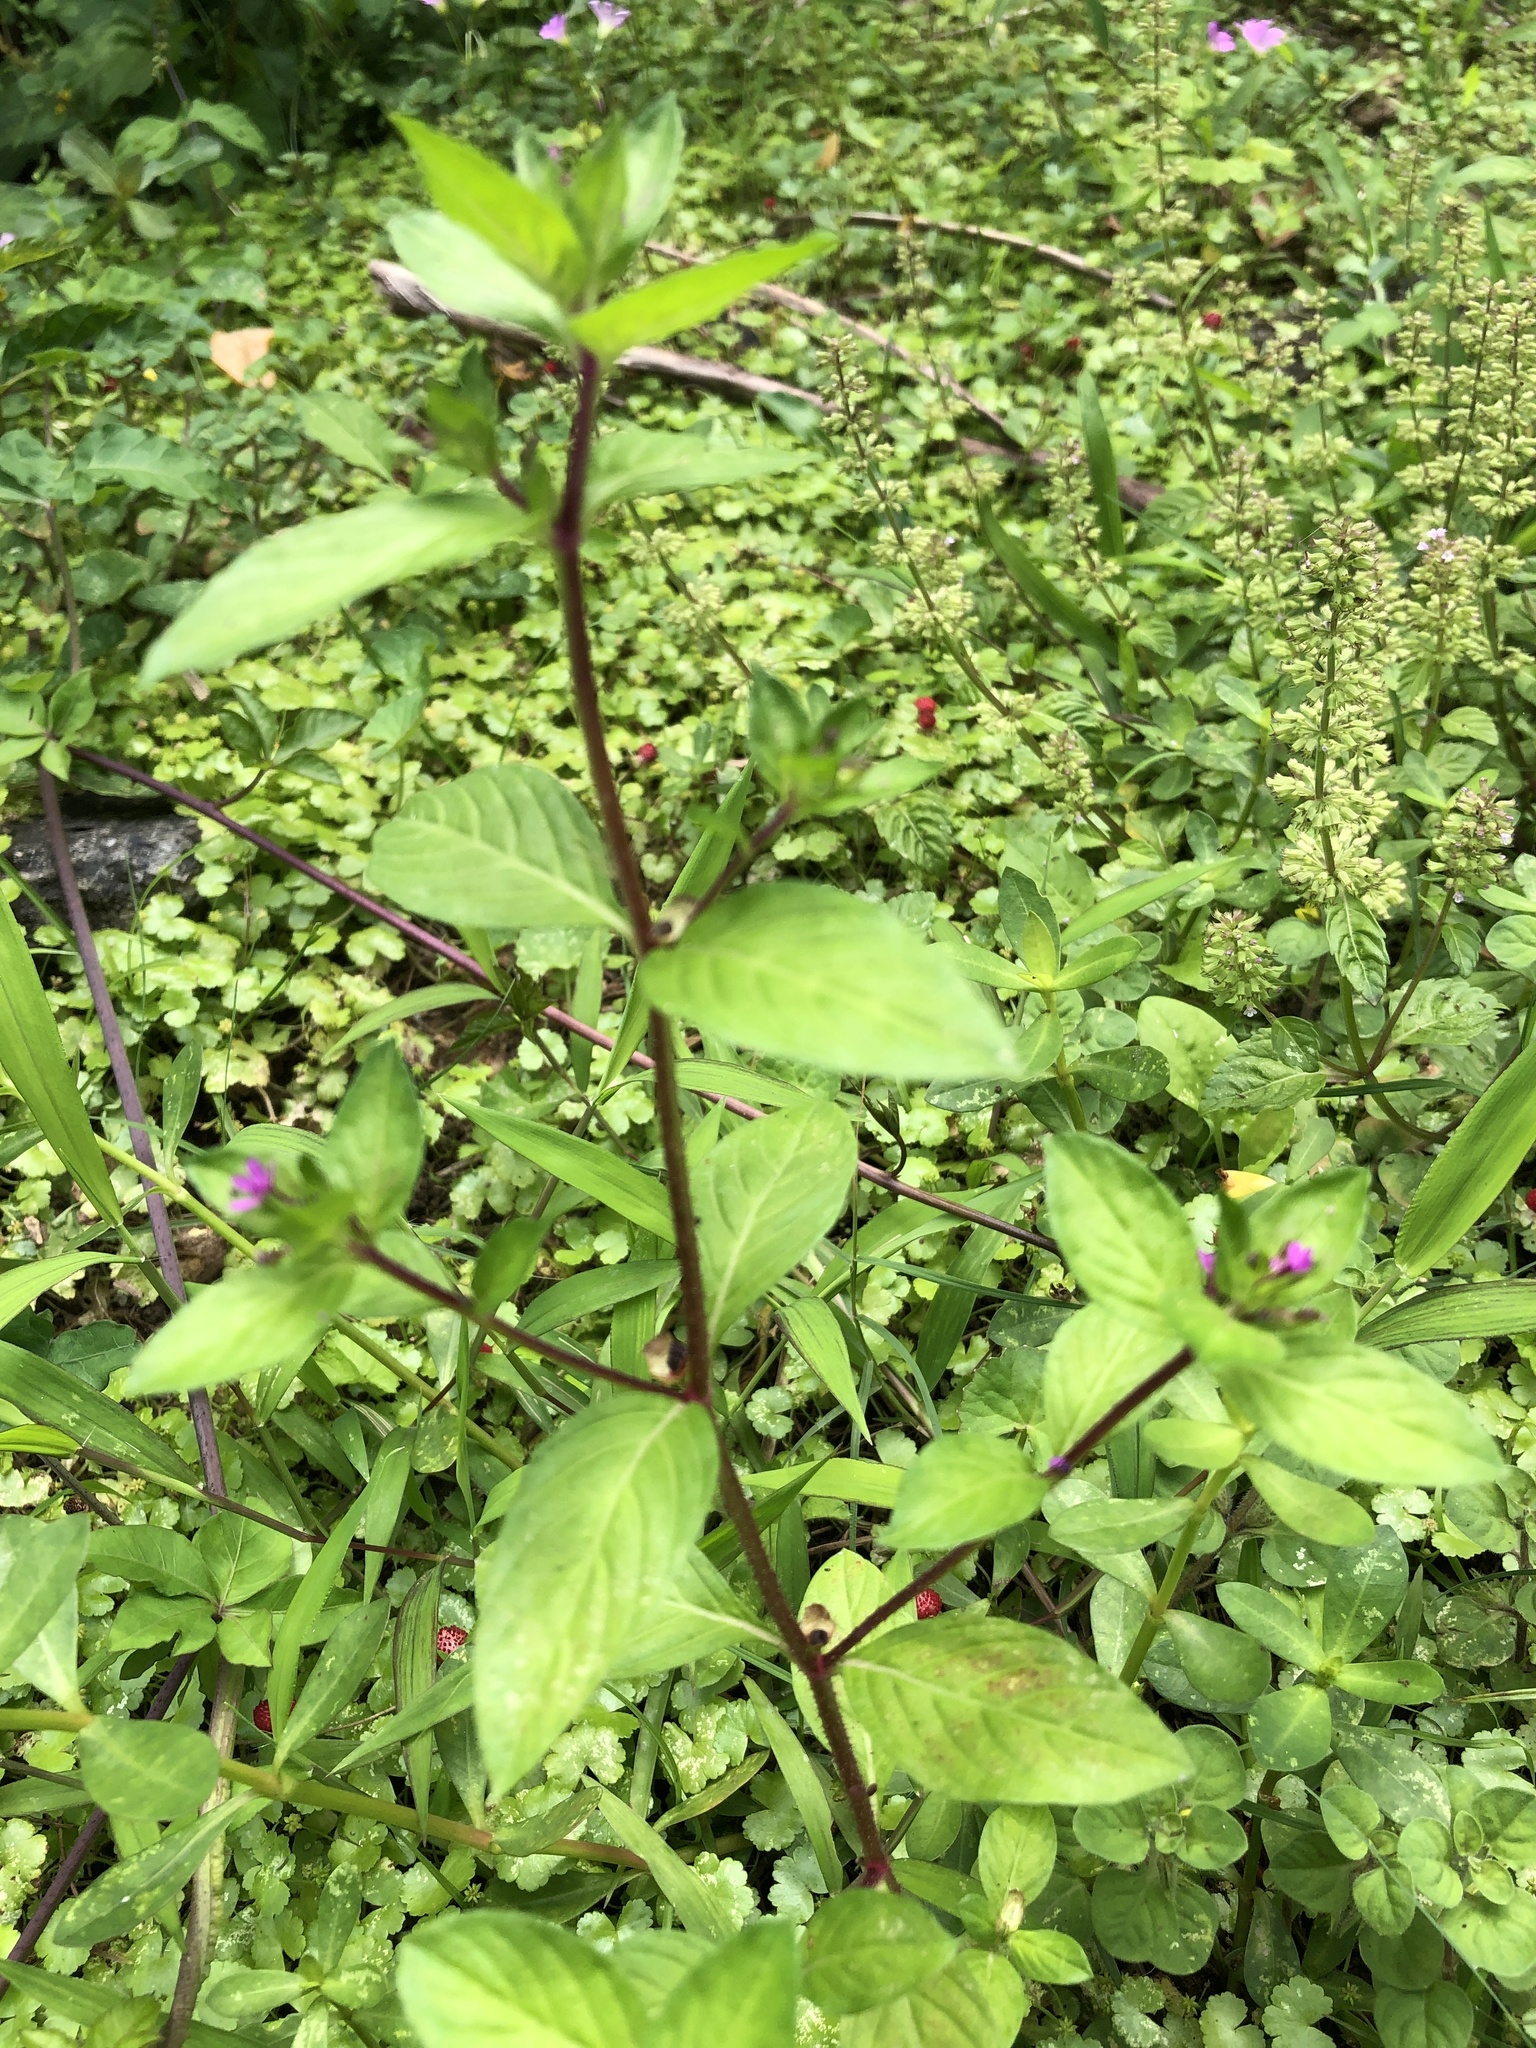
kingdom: Plantae
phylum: Tracheophyta
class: Magnoliopsida
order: Myrtales
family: Lythraceae
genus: Cuphea
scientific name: Cuphea carthagenensis
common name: Colombian waxweed
